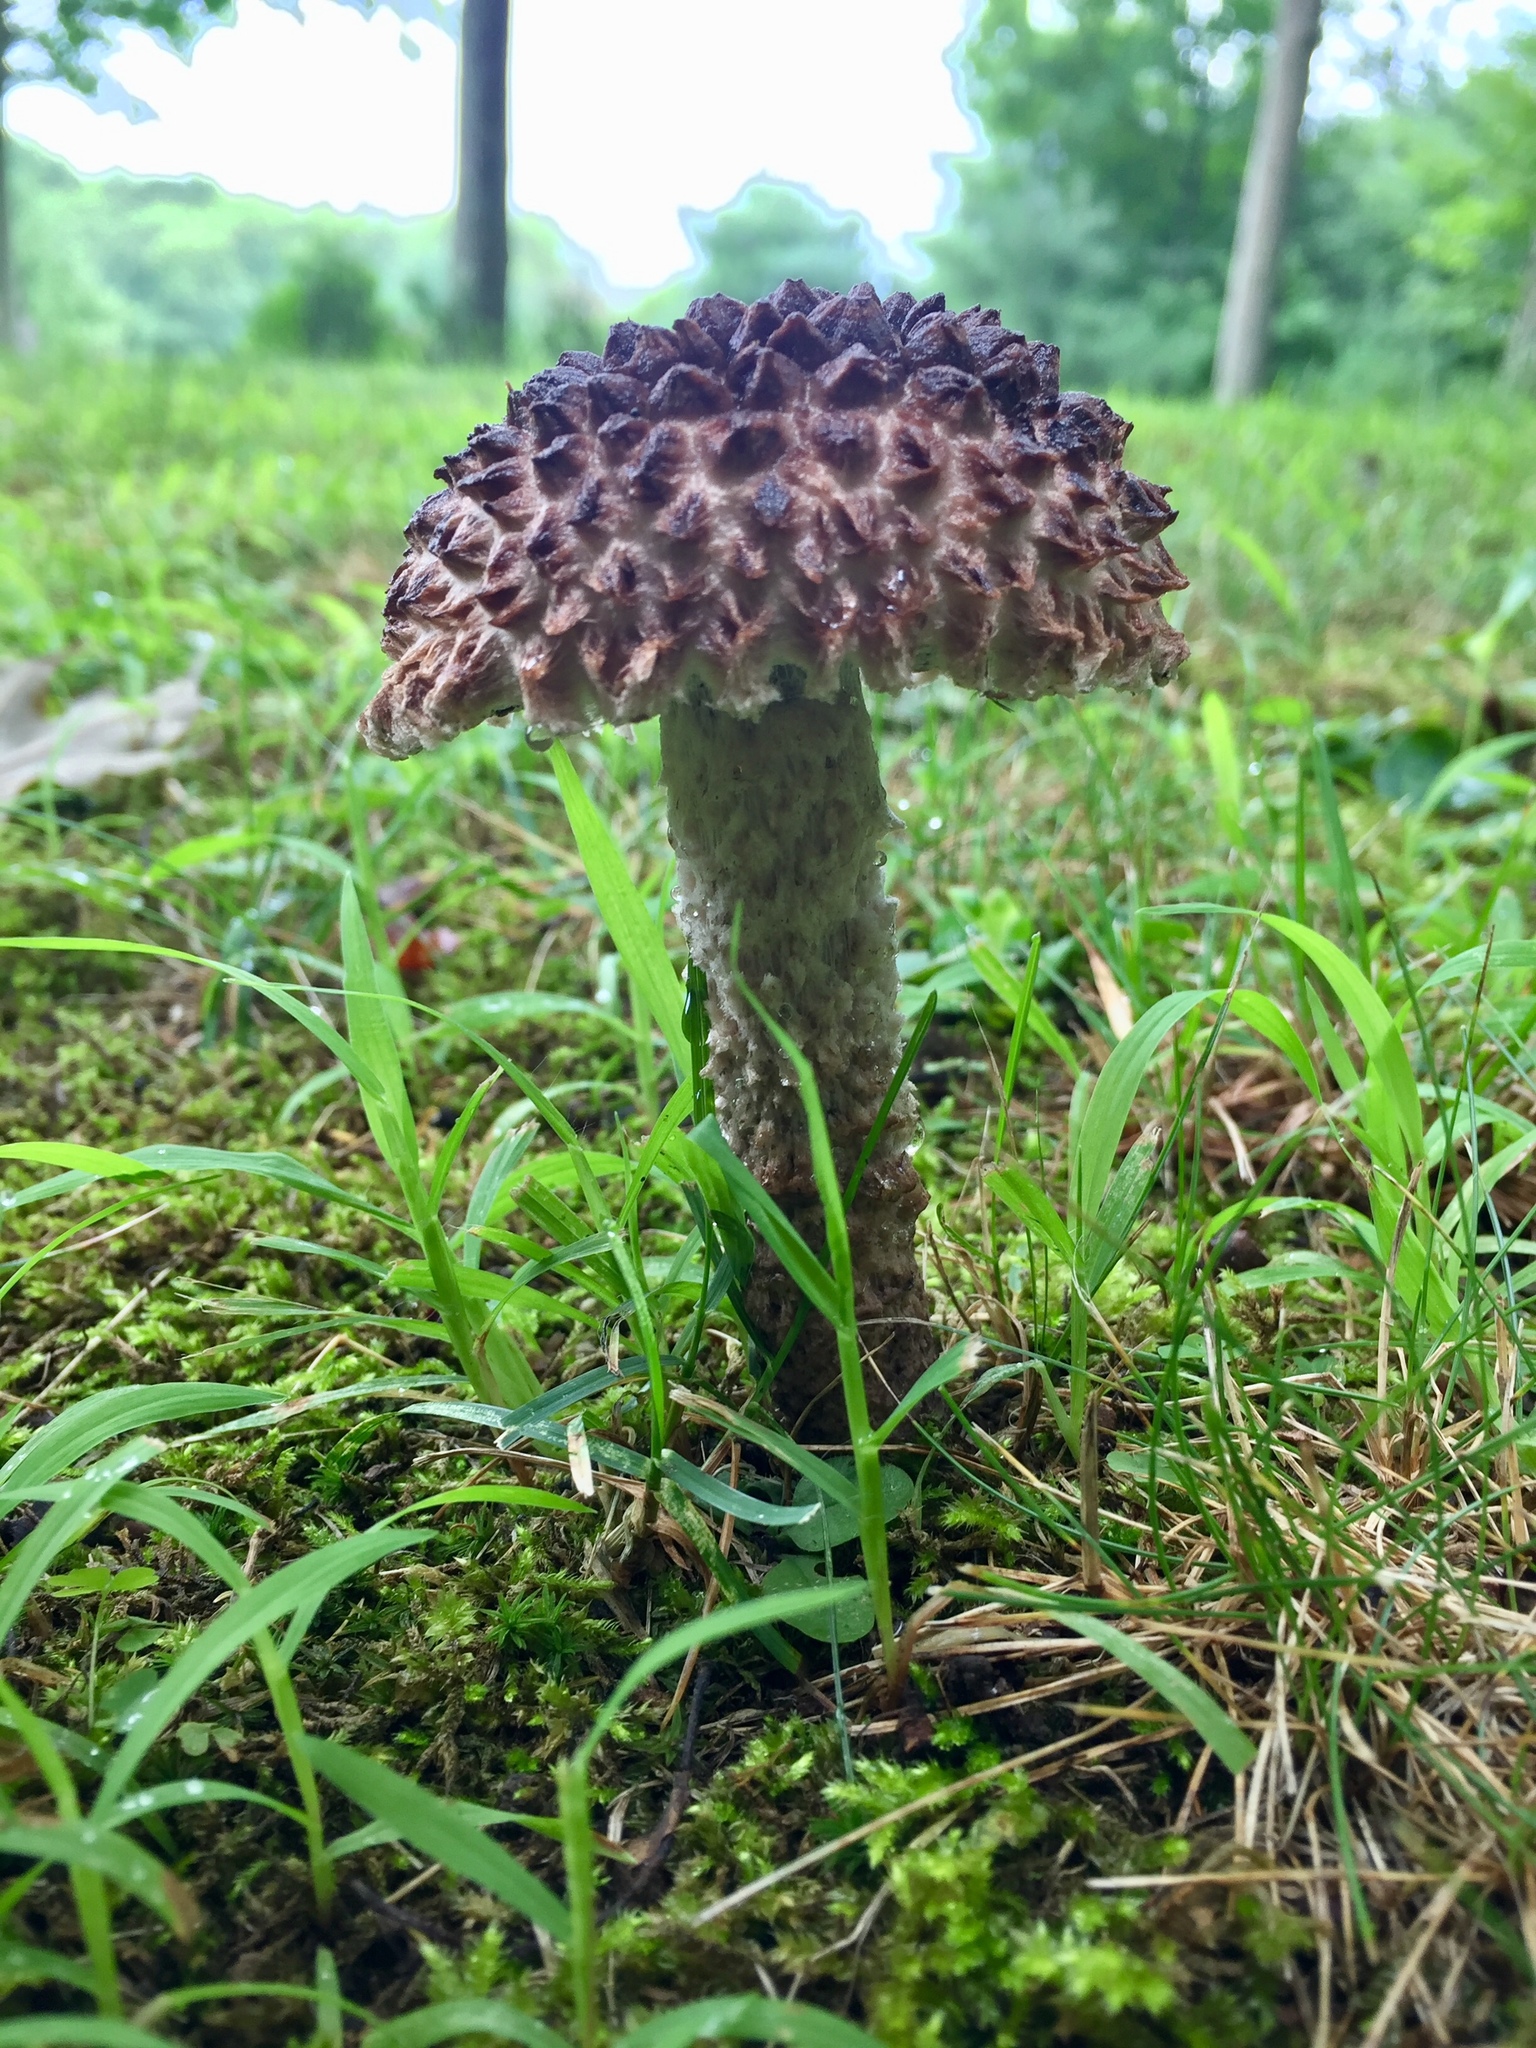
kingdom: Fungi
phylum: Basidiomycota
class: Agaricomycetes
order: Boletales
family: Boletaceae
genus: Strobilomyces
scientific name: Strobilomyces strobilaceus
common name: Old man of the woods
